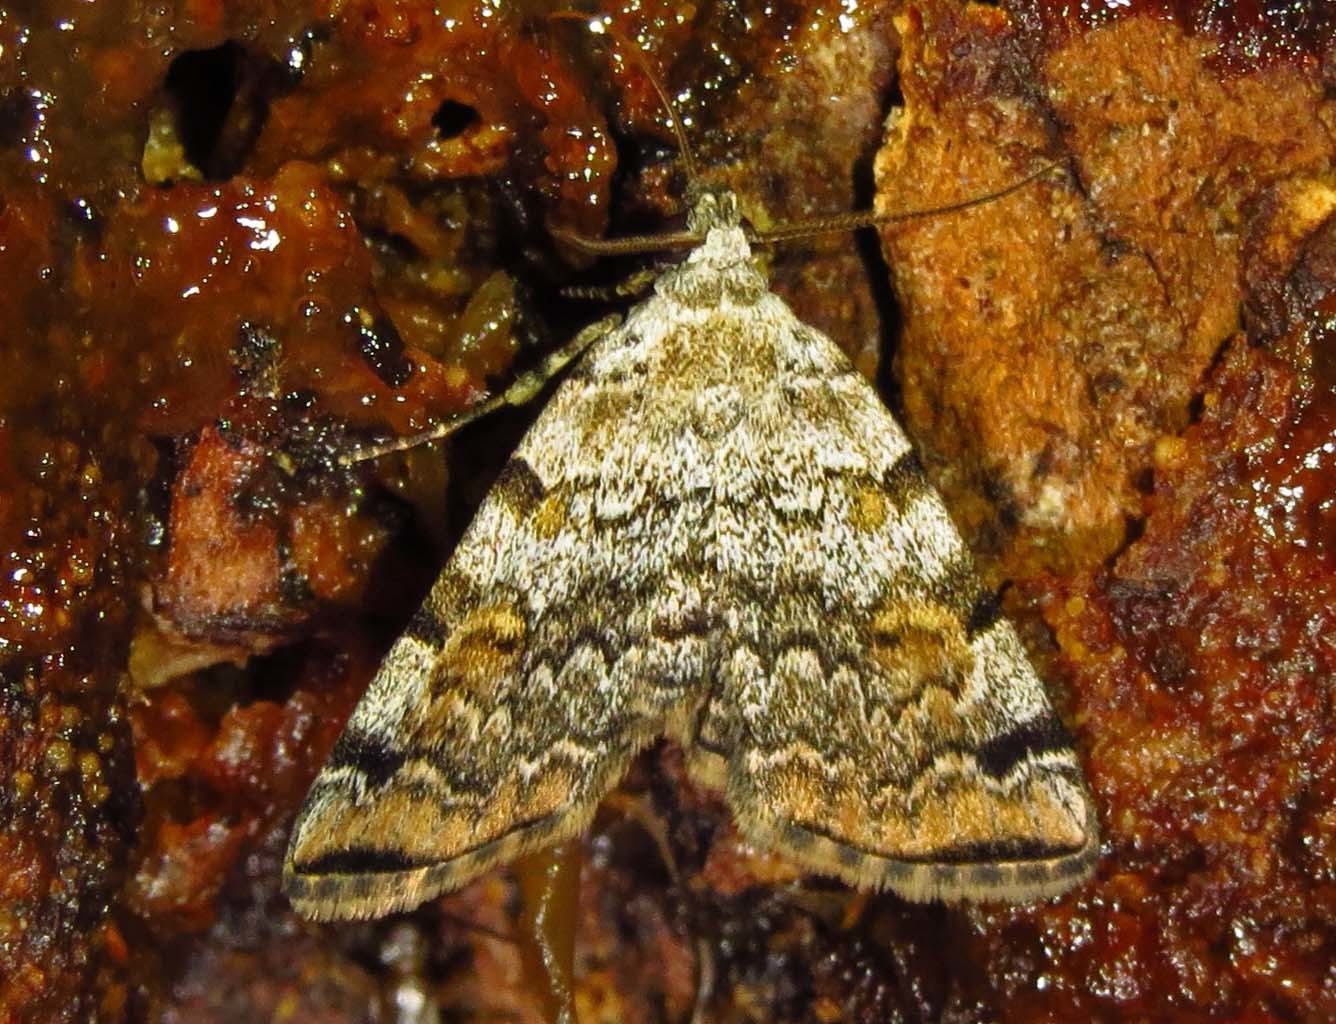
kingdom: Animalia
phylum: Arthropoda
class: Insecta
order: Lepidoptera
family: Erebidae
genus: Idia
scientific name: Idia americalis
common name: American idia moth
